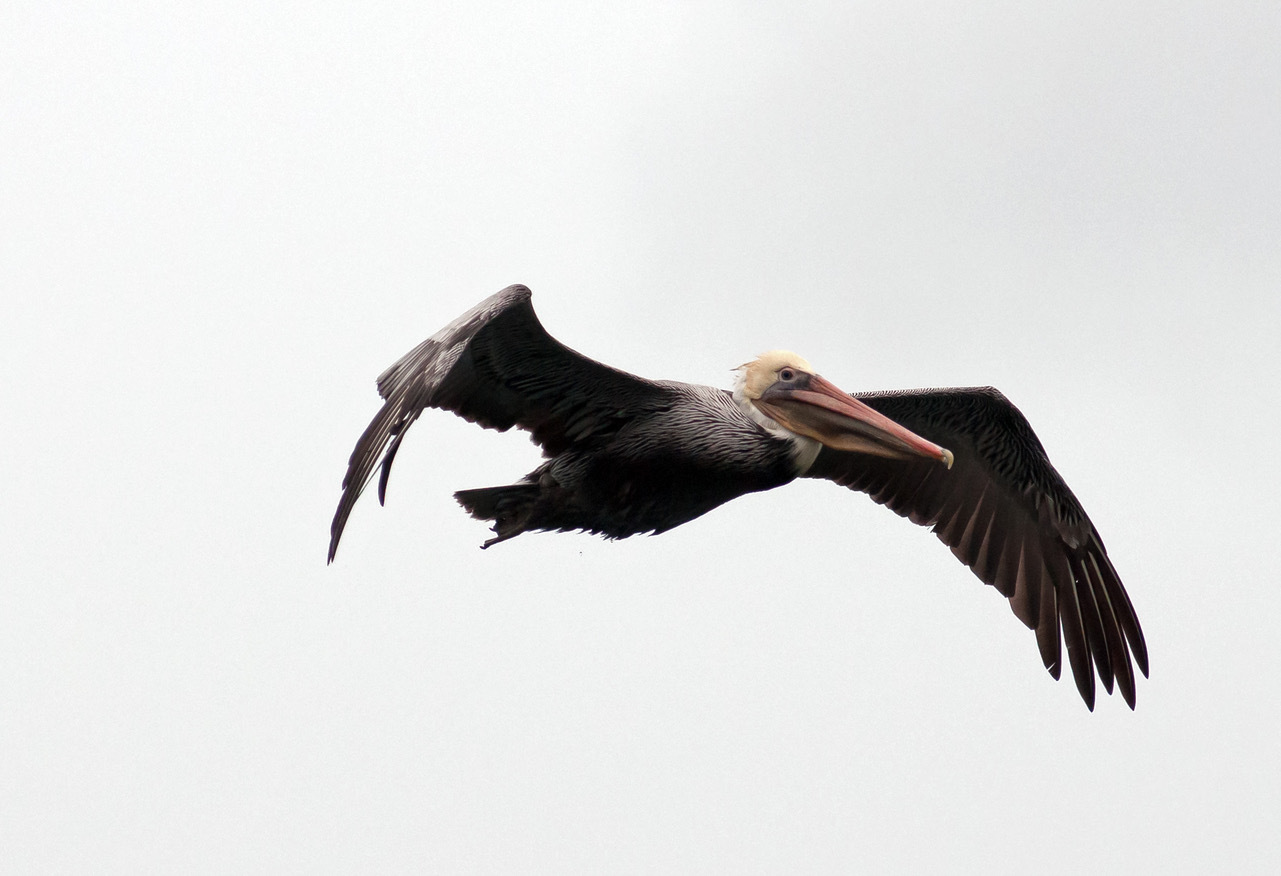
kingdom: Animalia
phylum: Chordata
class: Aves
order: Pelecaniformes
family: Pelecanidae
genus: Pelecanus
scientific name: Pelecanus occidentalis
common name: Brown pelican
